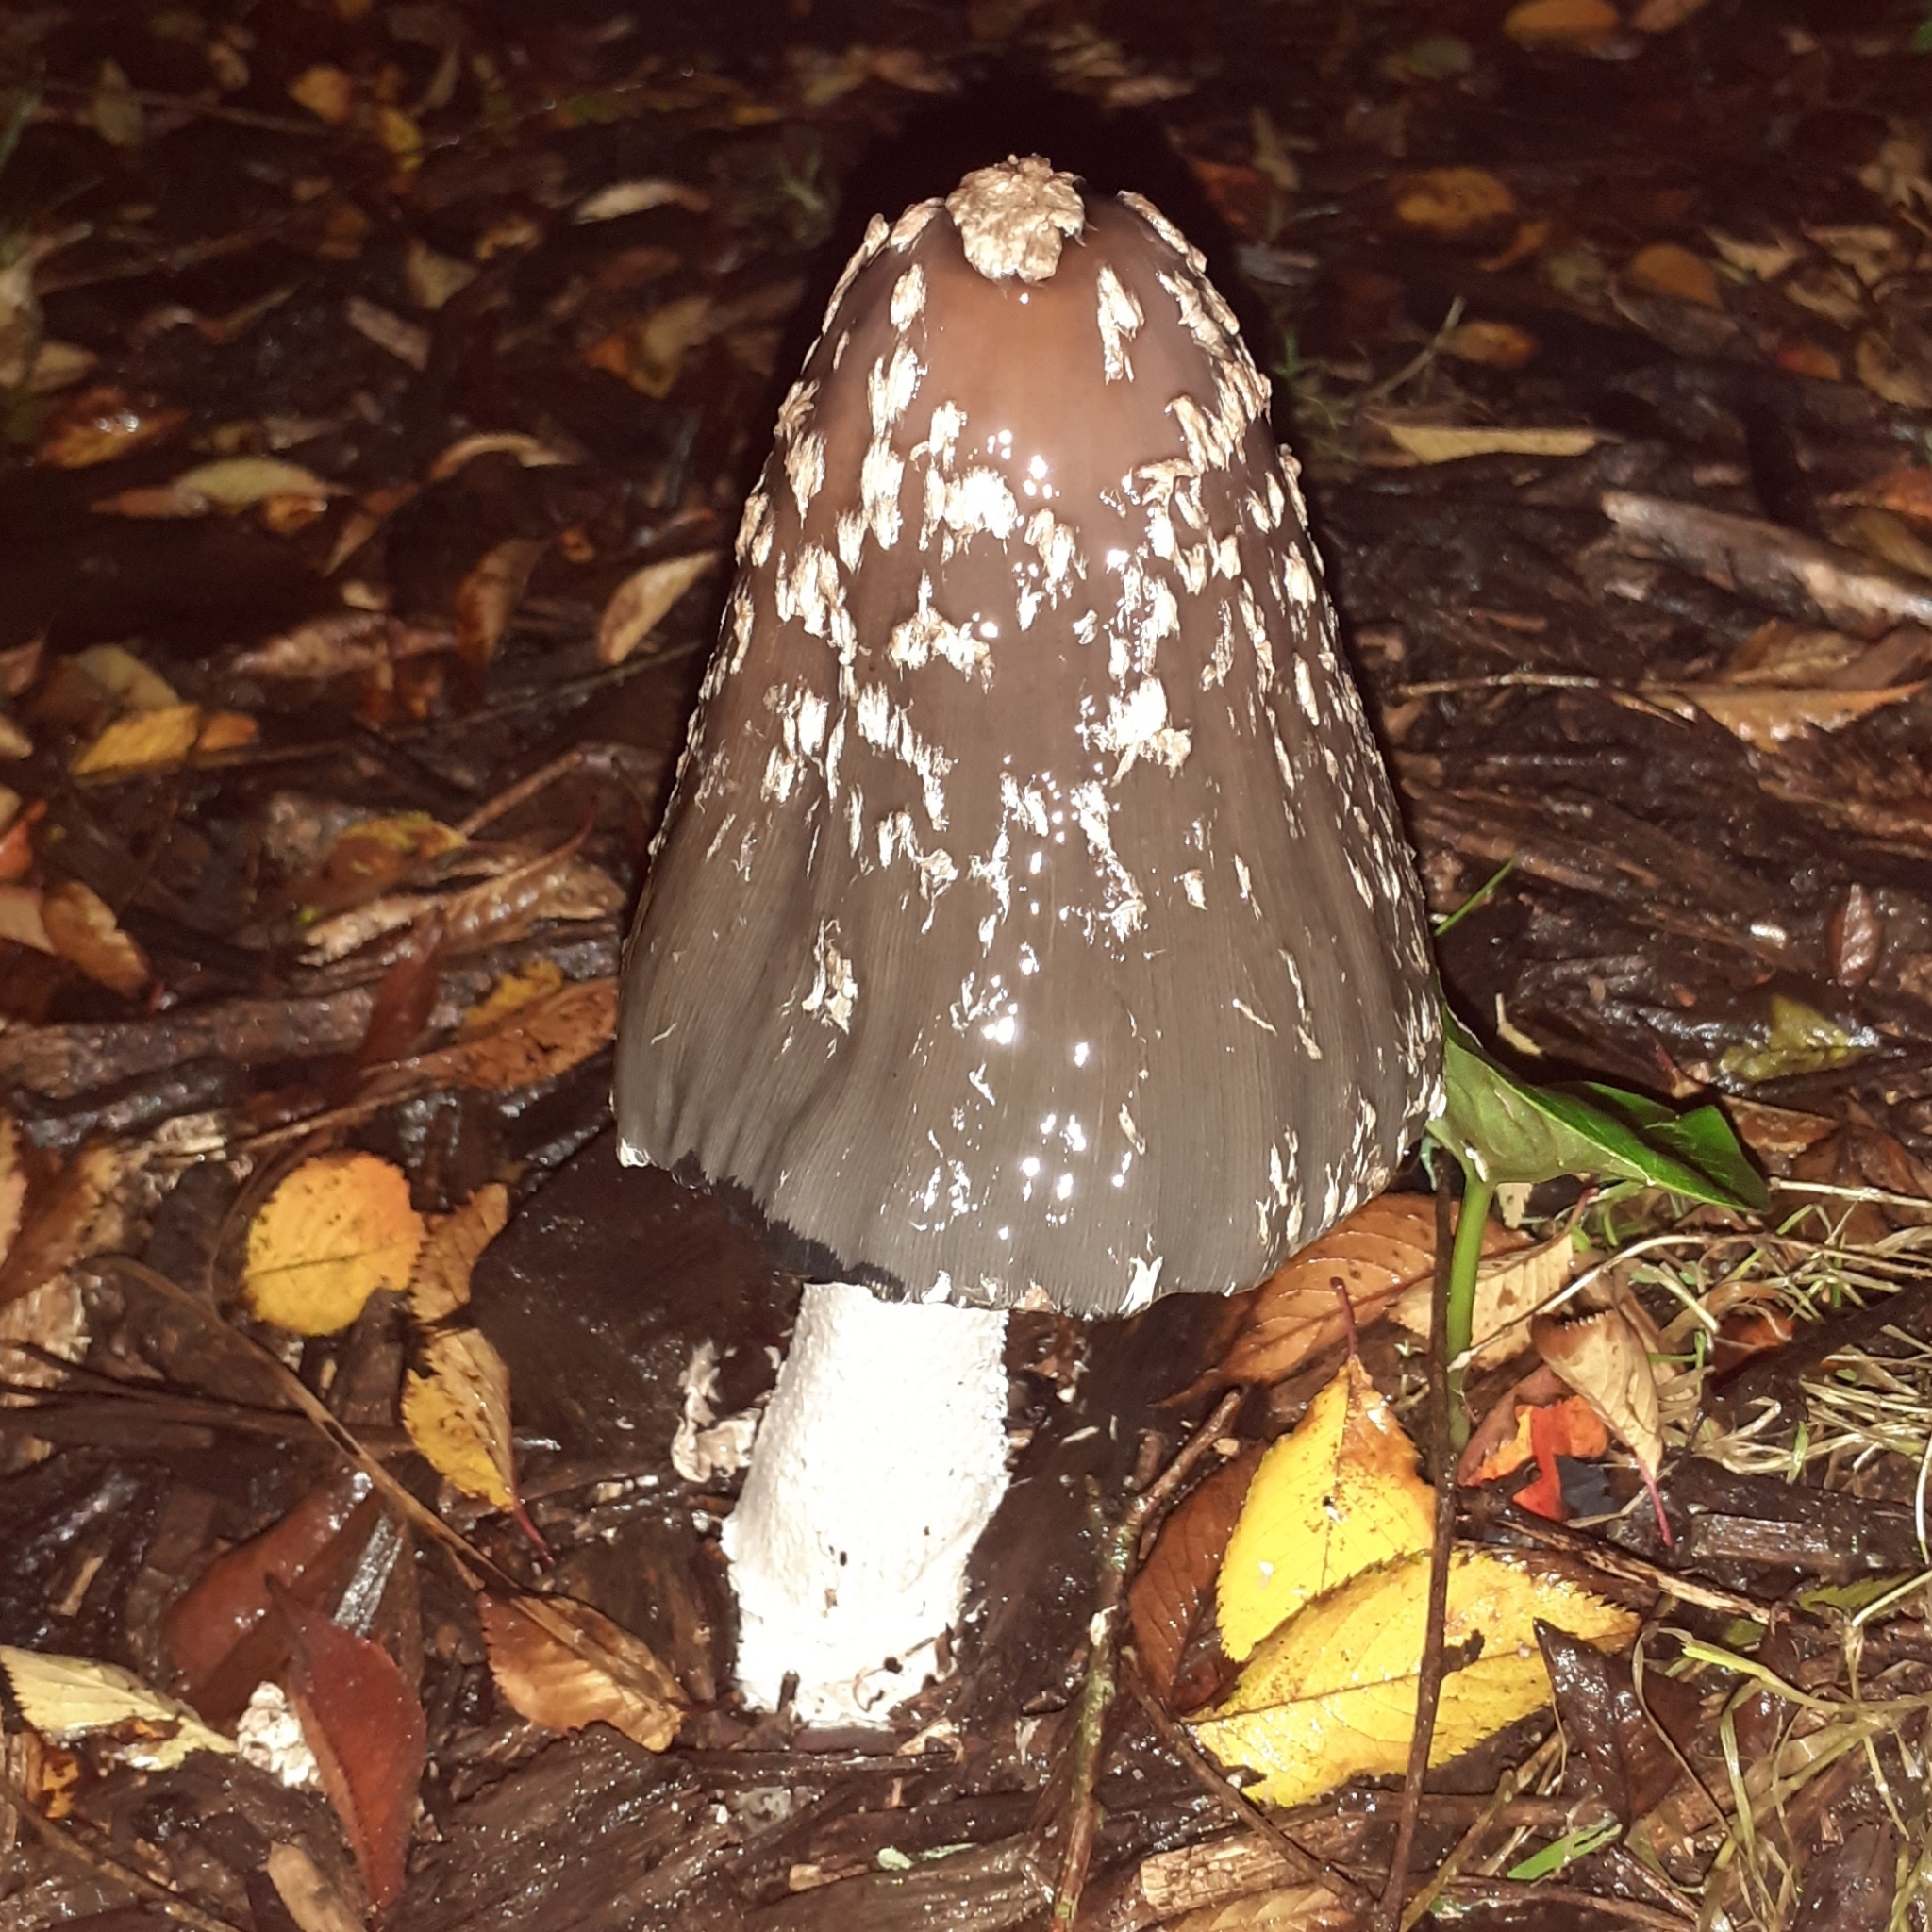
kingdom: Fungi
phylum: Basidiomycota
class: Agaricomycetes
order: Agaricales
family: Psathyrellaceae
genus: Coprinopsis
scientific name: Coprinopsis picacea
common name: Magpie inkcap
